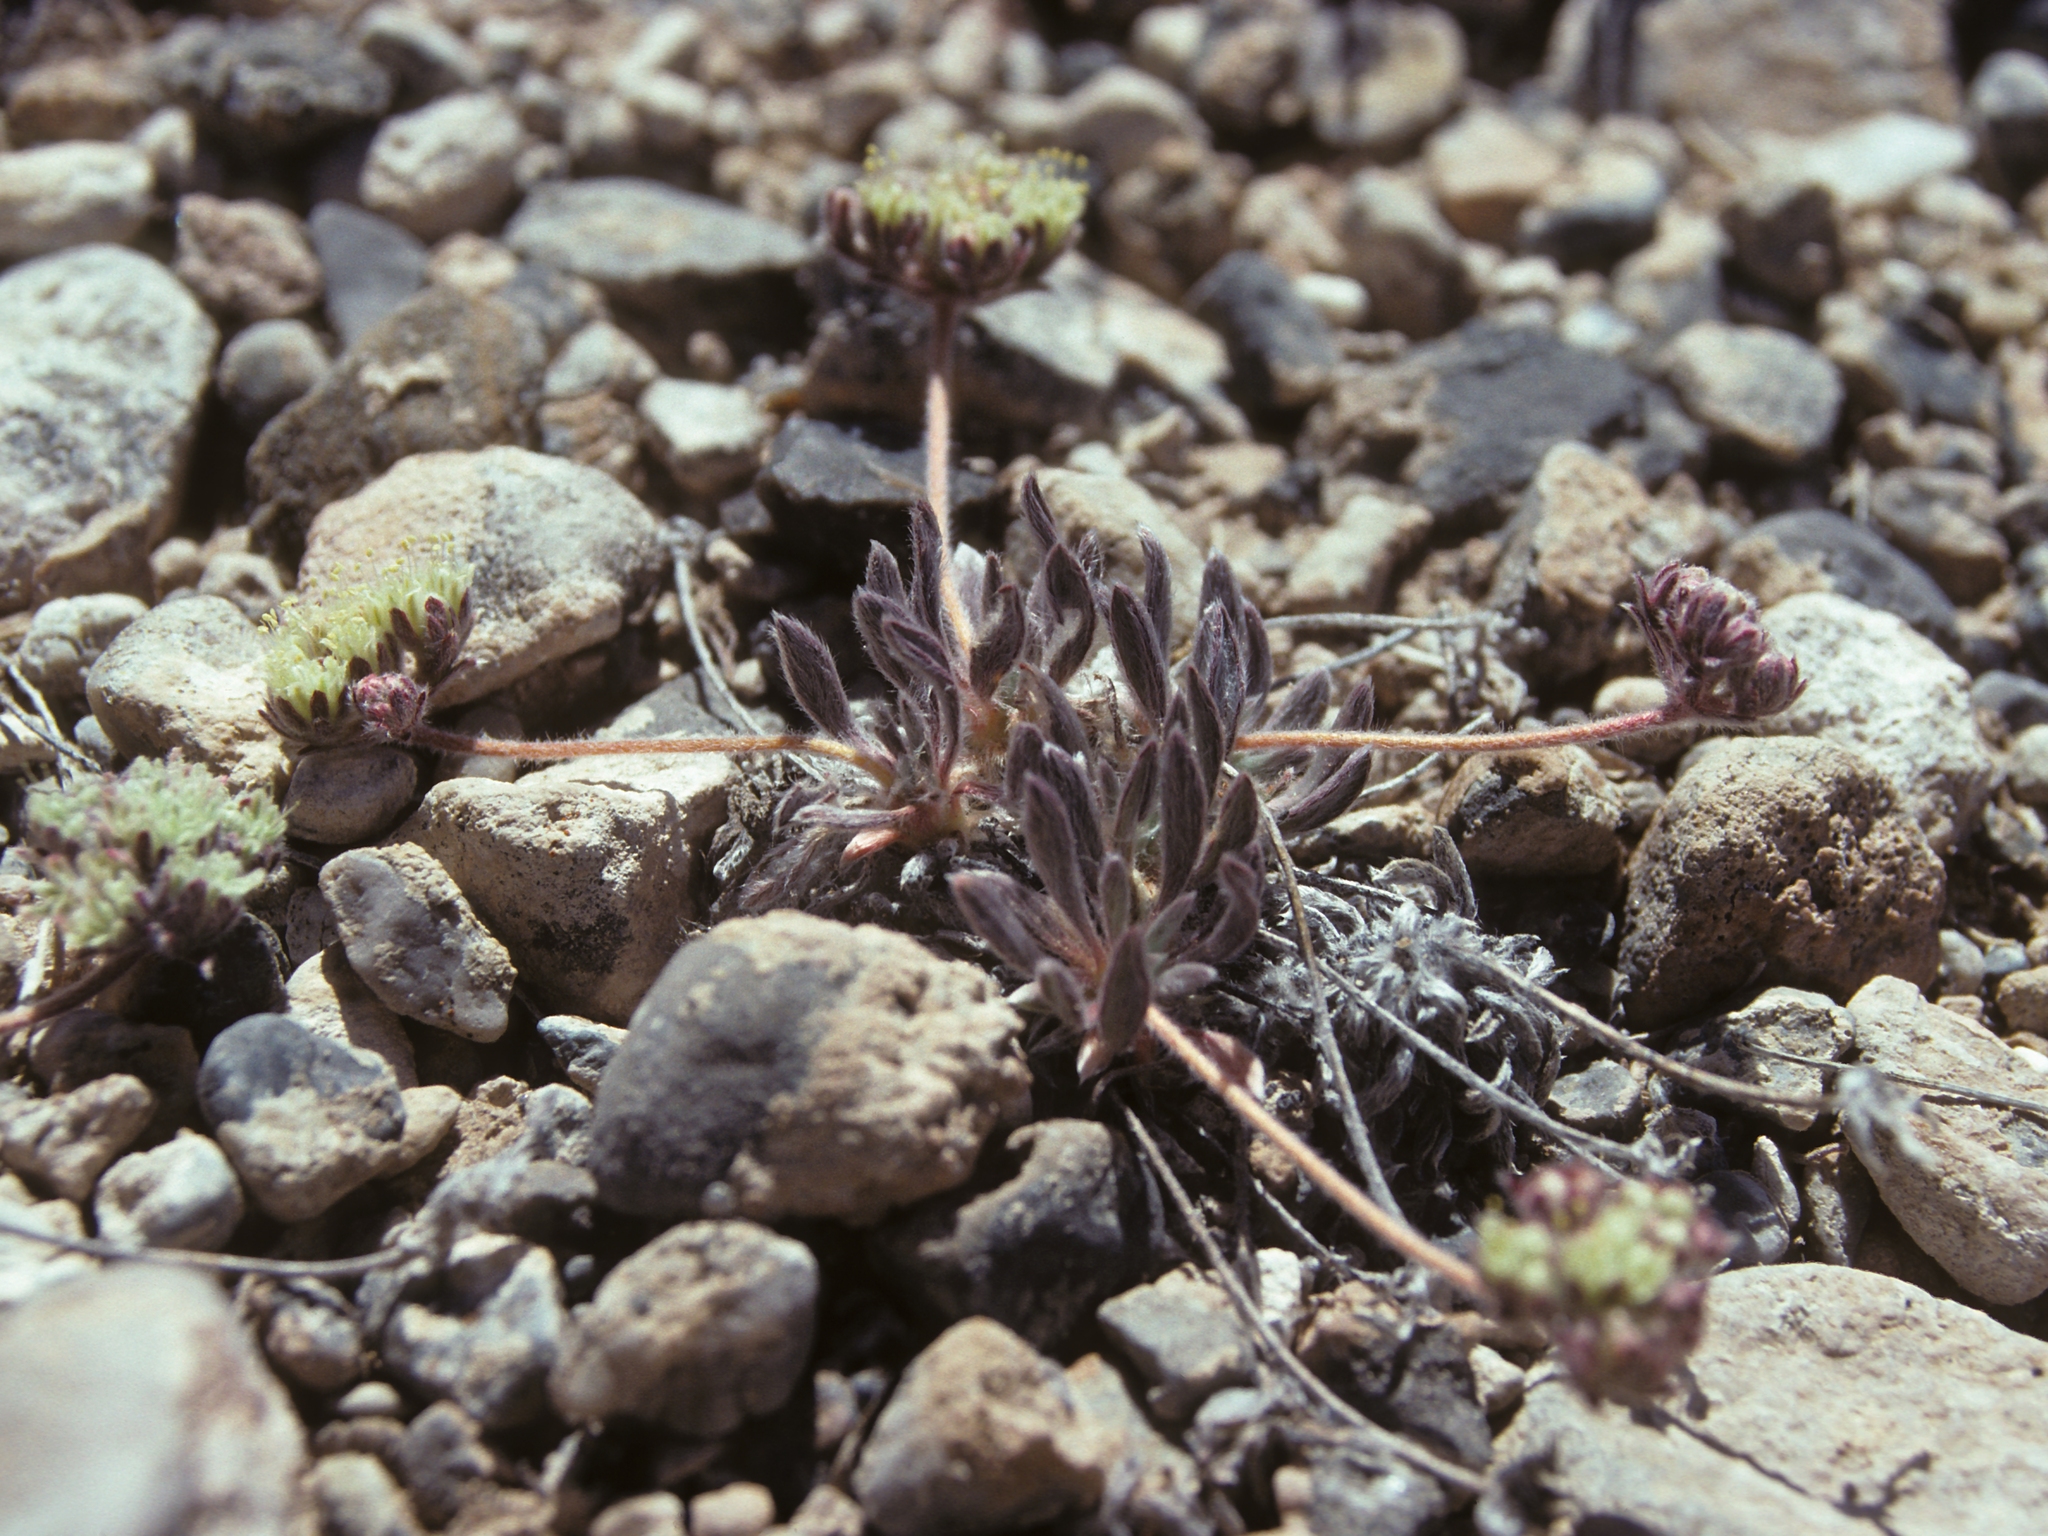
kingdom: Plantae
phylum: Tracheophyta
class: Magnoliopsida
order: Caryophyllales
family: Polygonaceae
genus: Eriogonum
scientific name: Eriogonum villiflorum
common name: Gray's wild buckwheat
